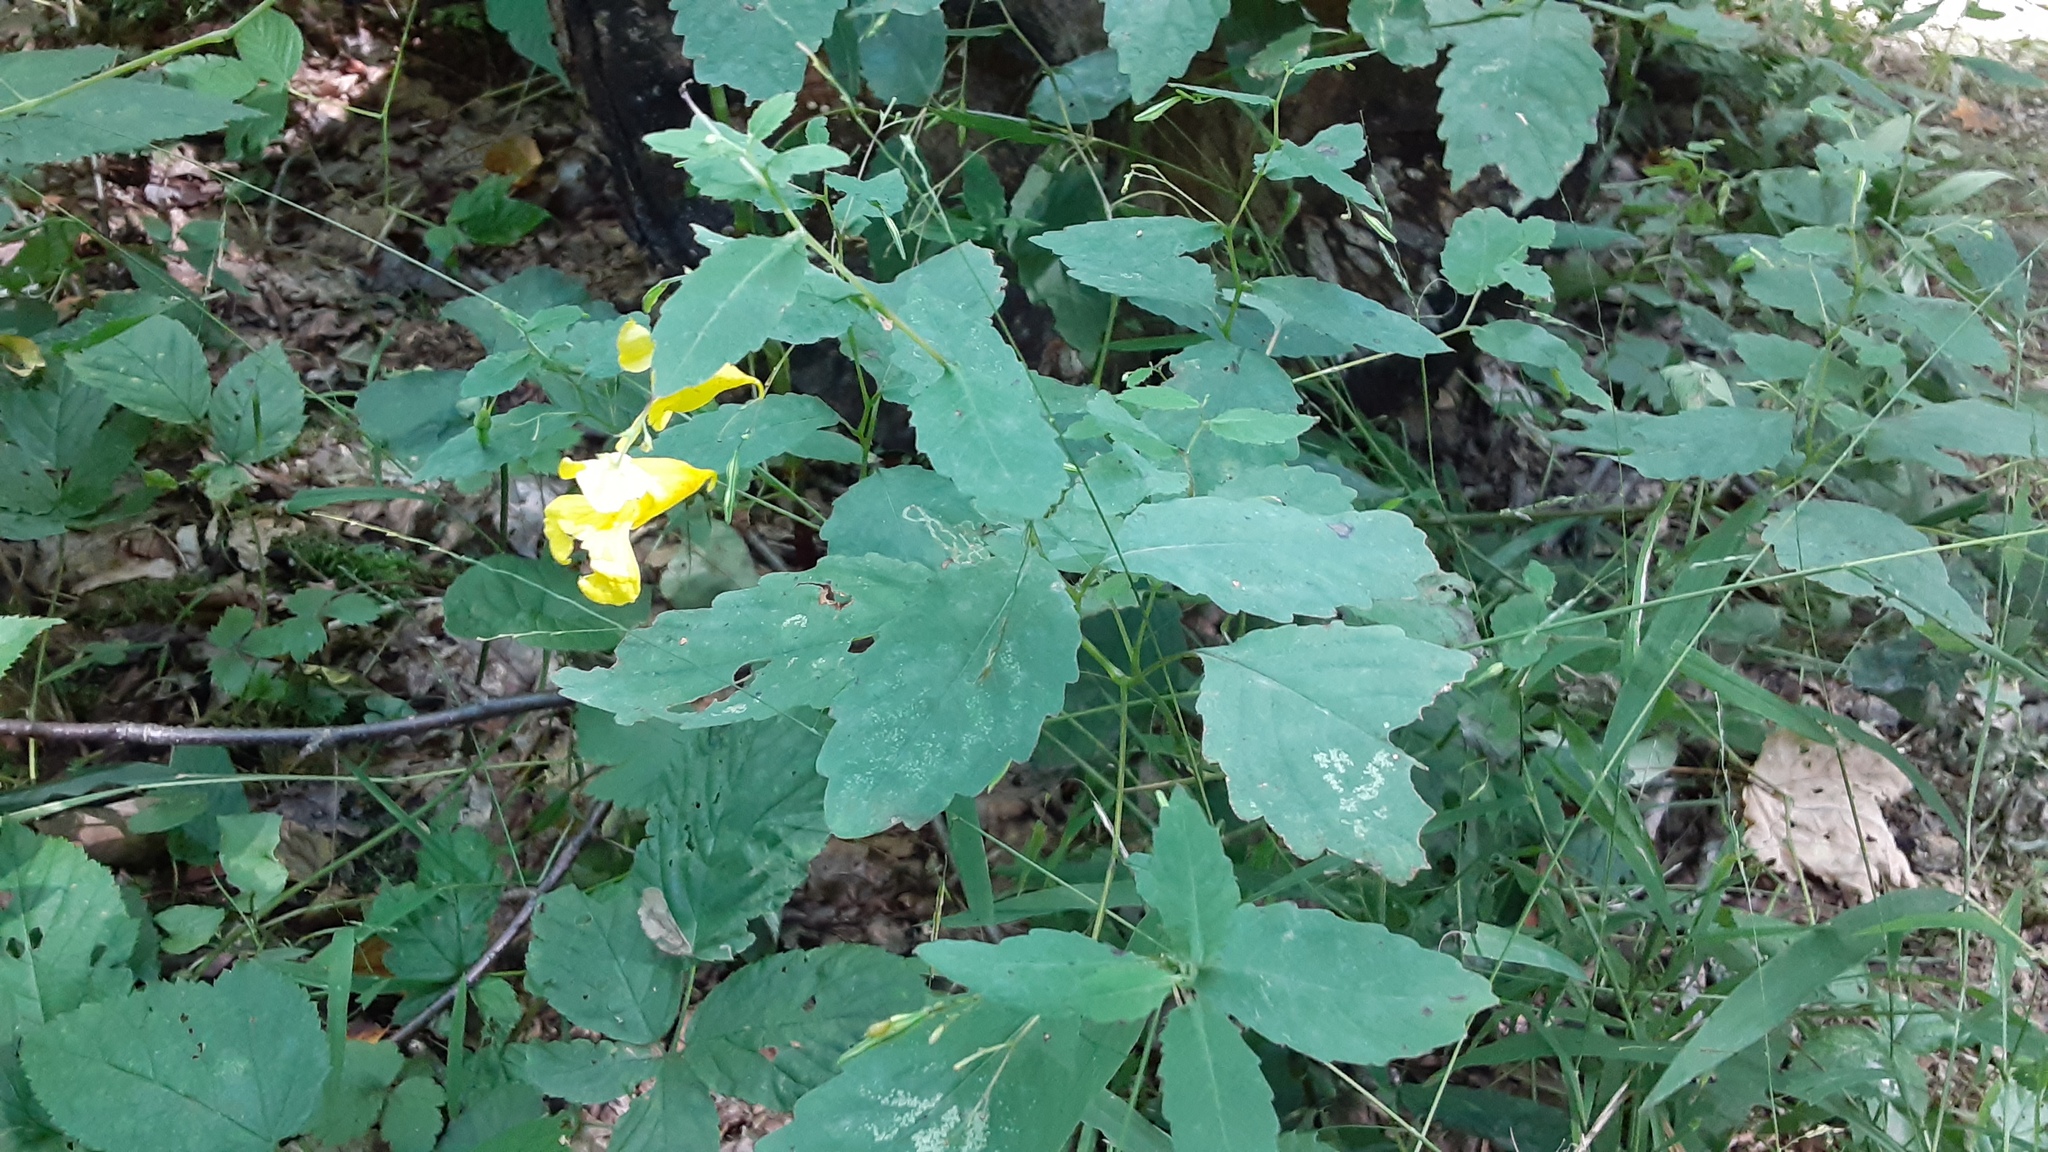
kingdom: Plantae
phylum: Tracheophyta
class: Magnoliopsida
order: Ericales
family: Balsaminaceae
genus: Impatiens
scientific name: Impatiens pallida
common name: Pale snapweed
